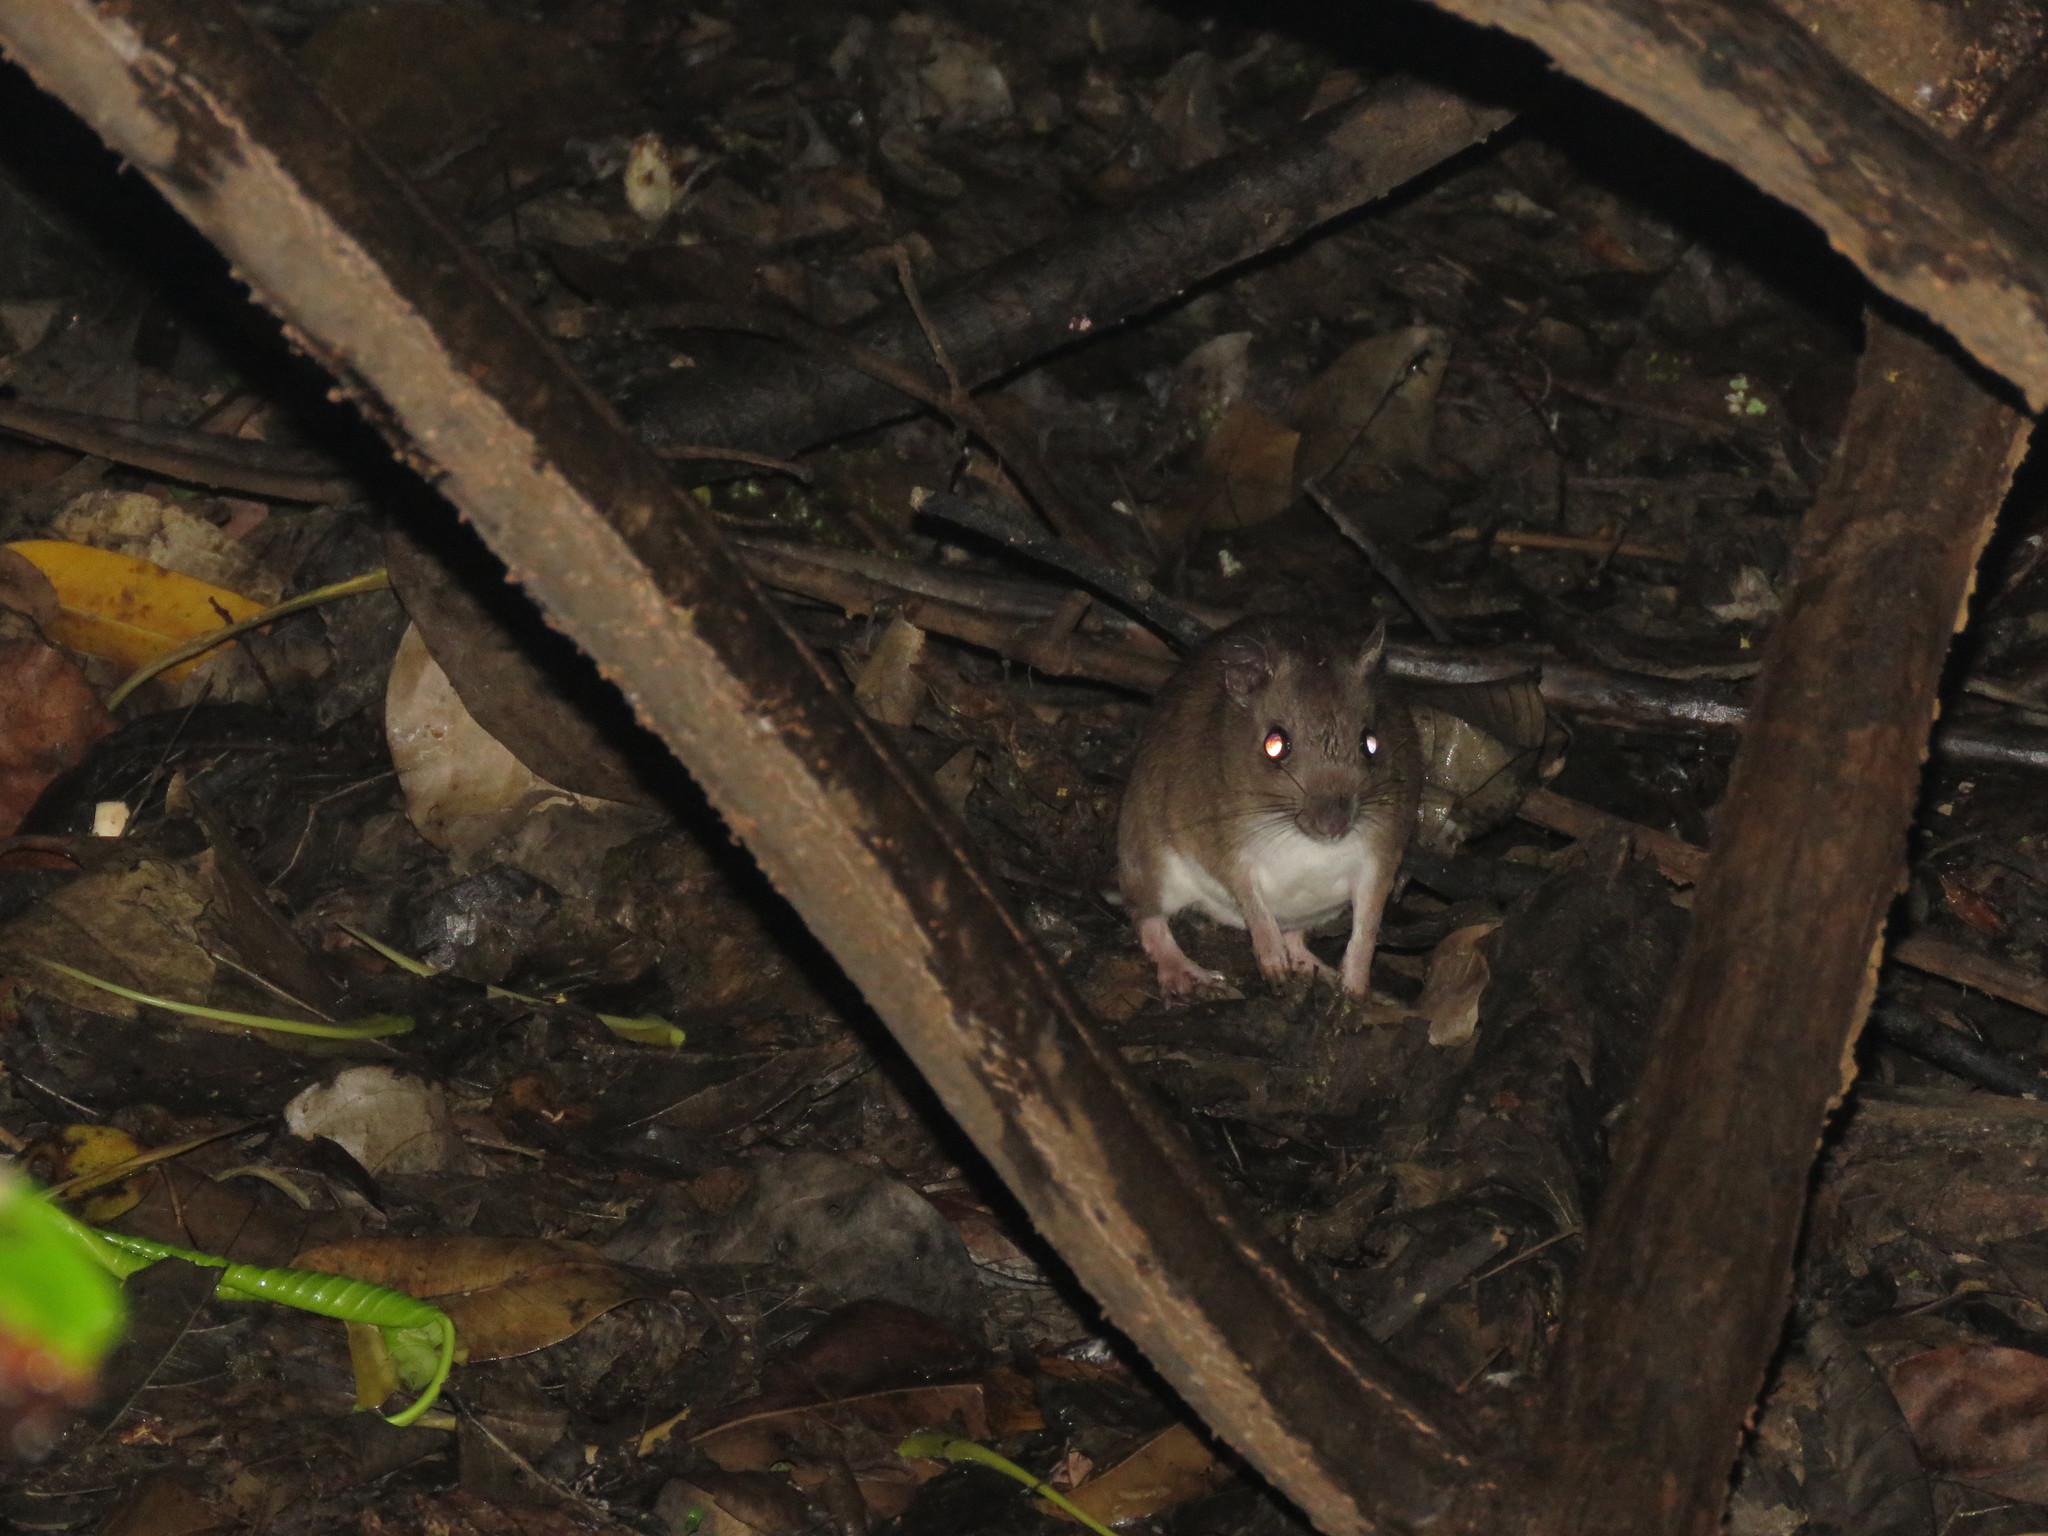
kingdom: Animalia
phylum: Chordata
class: Mammalia
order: Rodentia
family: Cricetidae
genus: Holochilus
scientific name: Holochilus sciureus
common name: Amazonian marsh rat
